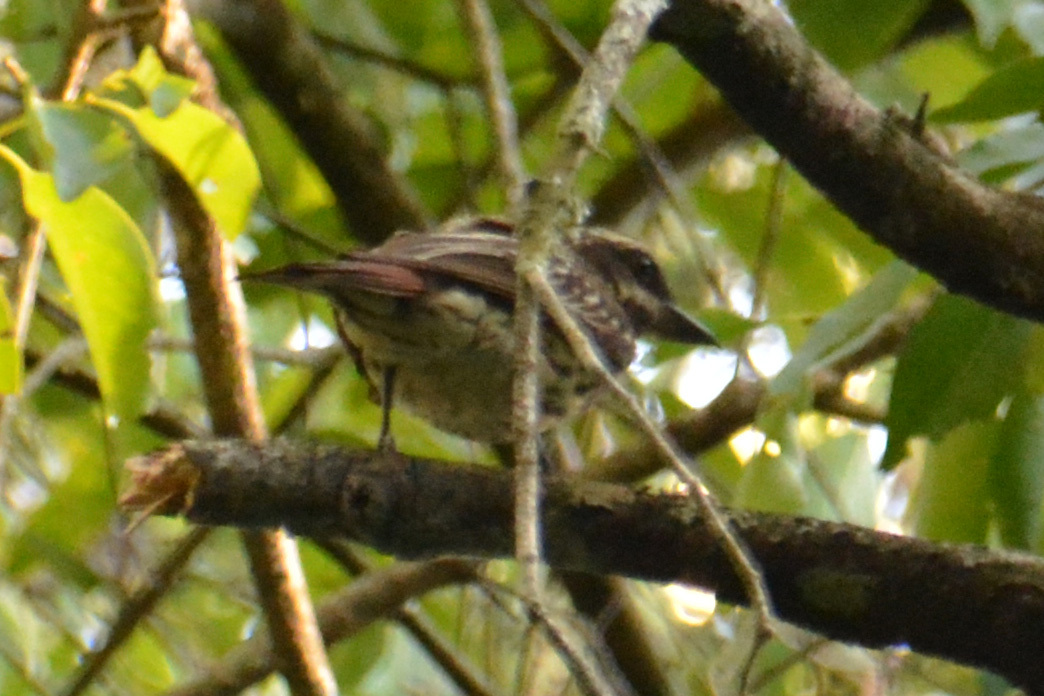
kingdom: Animalia
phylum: Chordata
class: Aves
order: Passeriformes
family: Tyrannidae
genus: Myiodynastes
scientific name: Myiodynastes maculatus
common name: Streaked flycatcher
